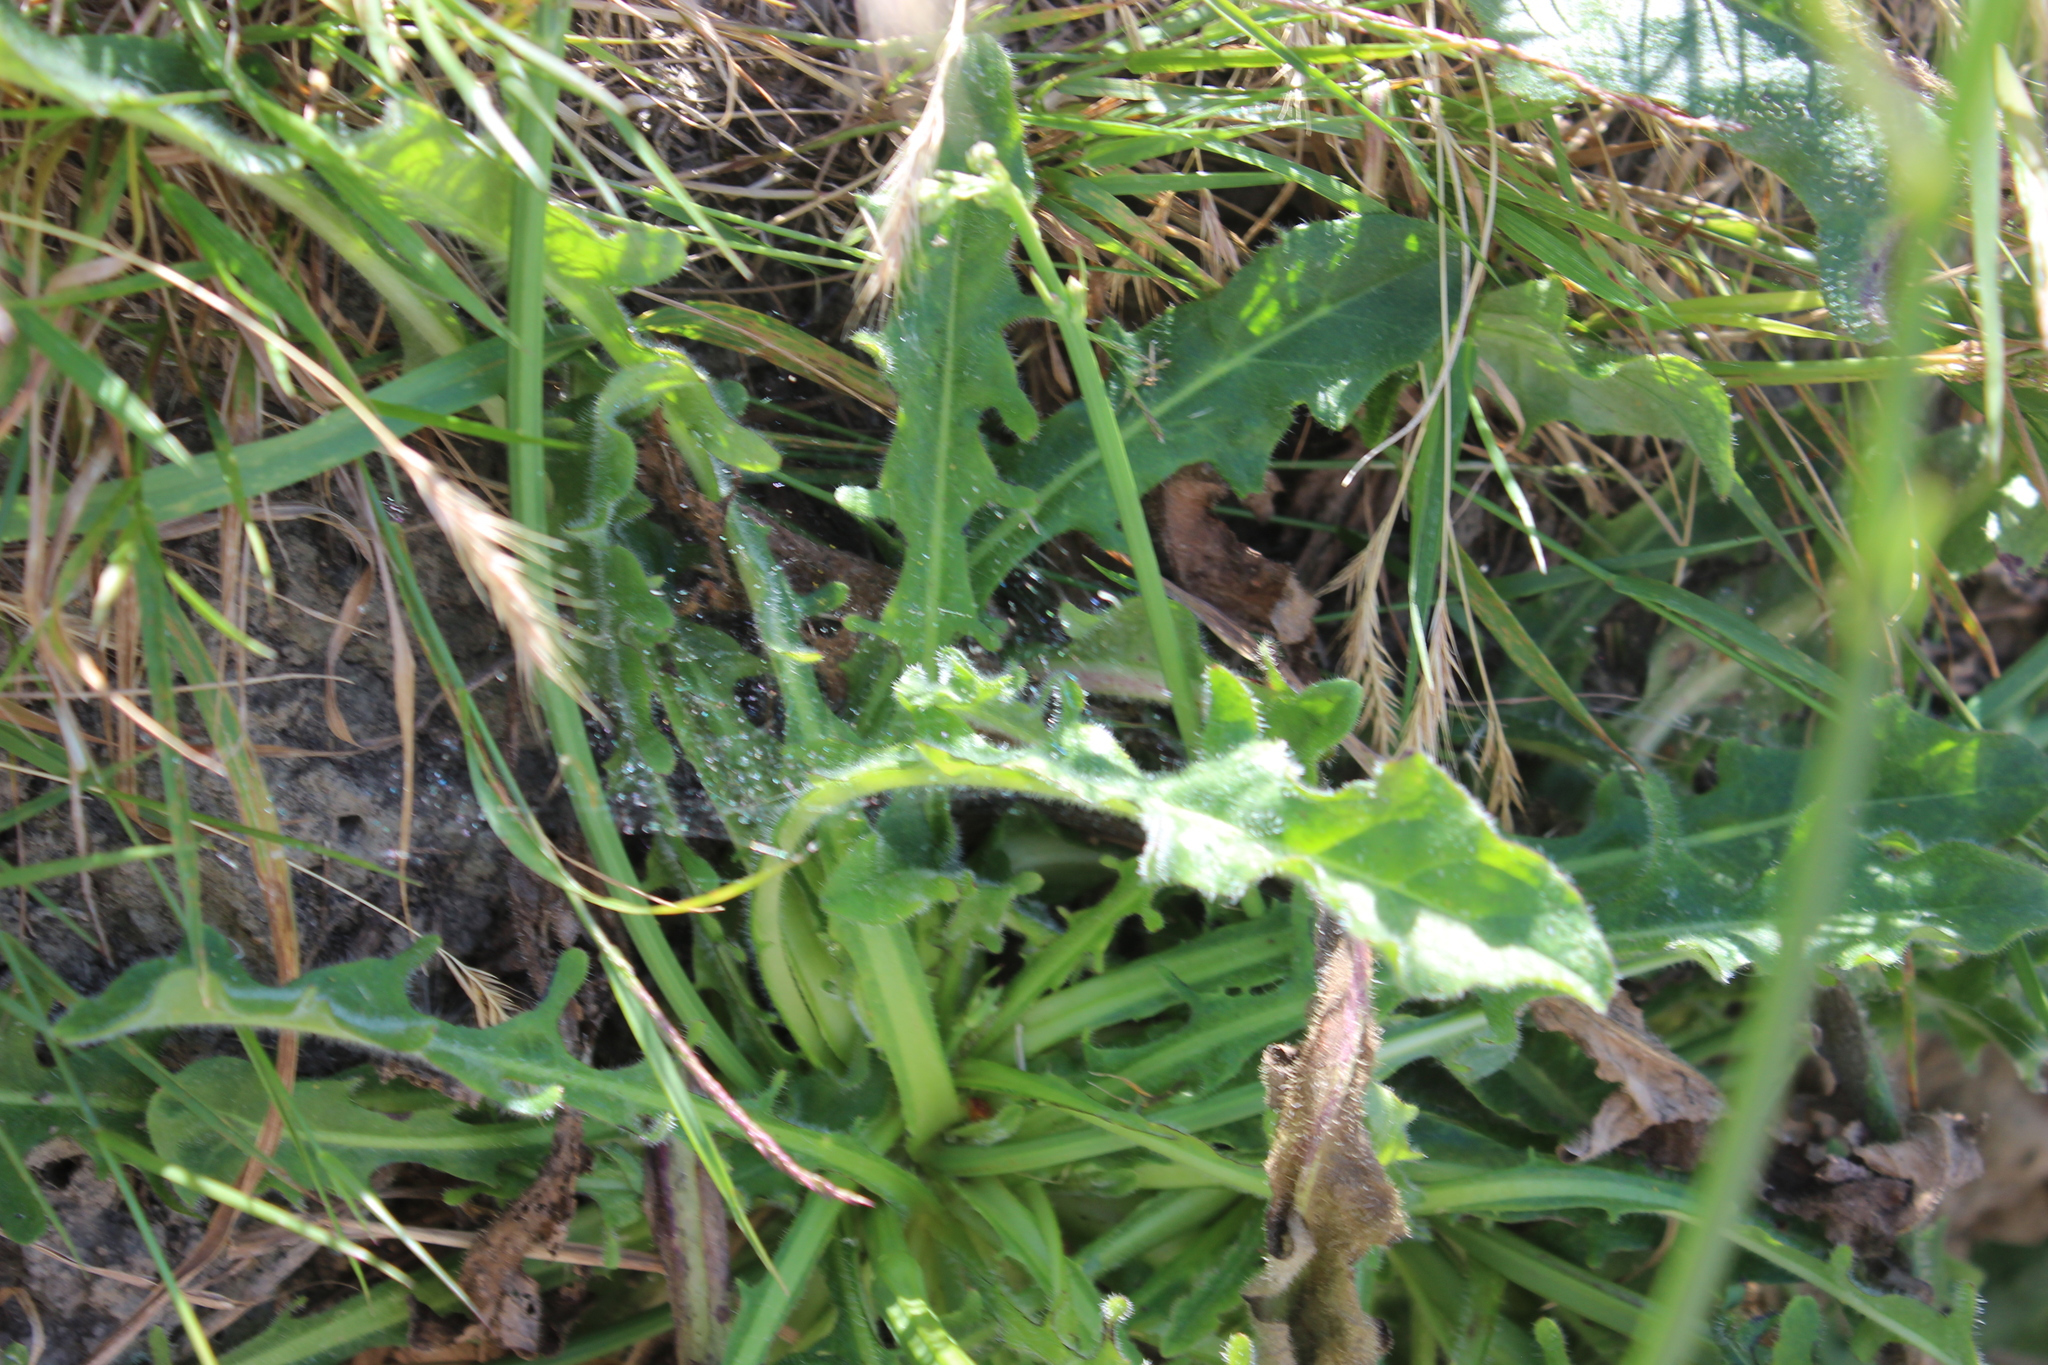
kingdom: Plantae
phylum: Tracheophyta
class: Magnoliopsida
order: Asterales
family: Asteraceae
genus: Hypochaeris
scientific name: Hypochaeris radicata
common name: Flatweed
